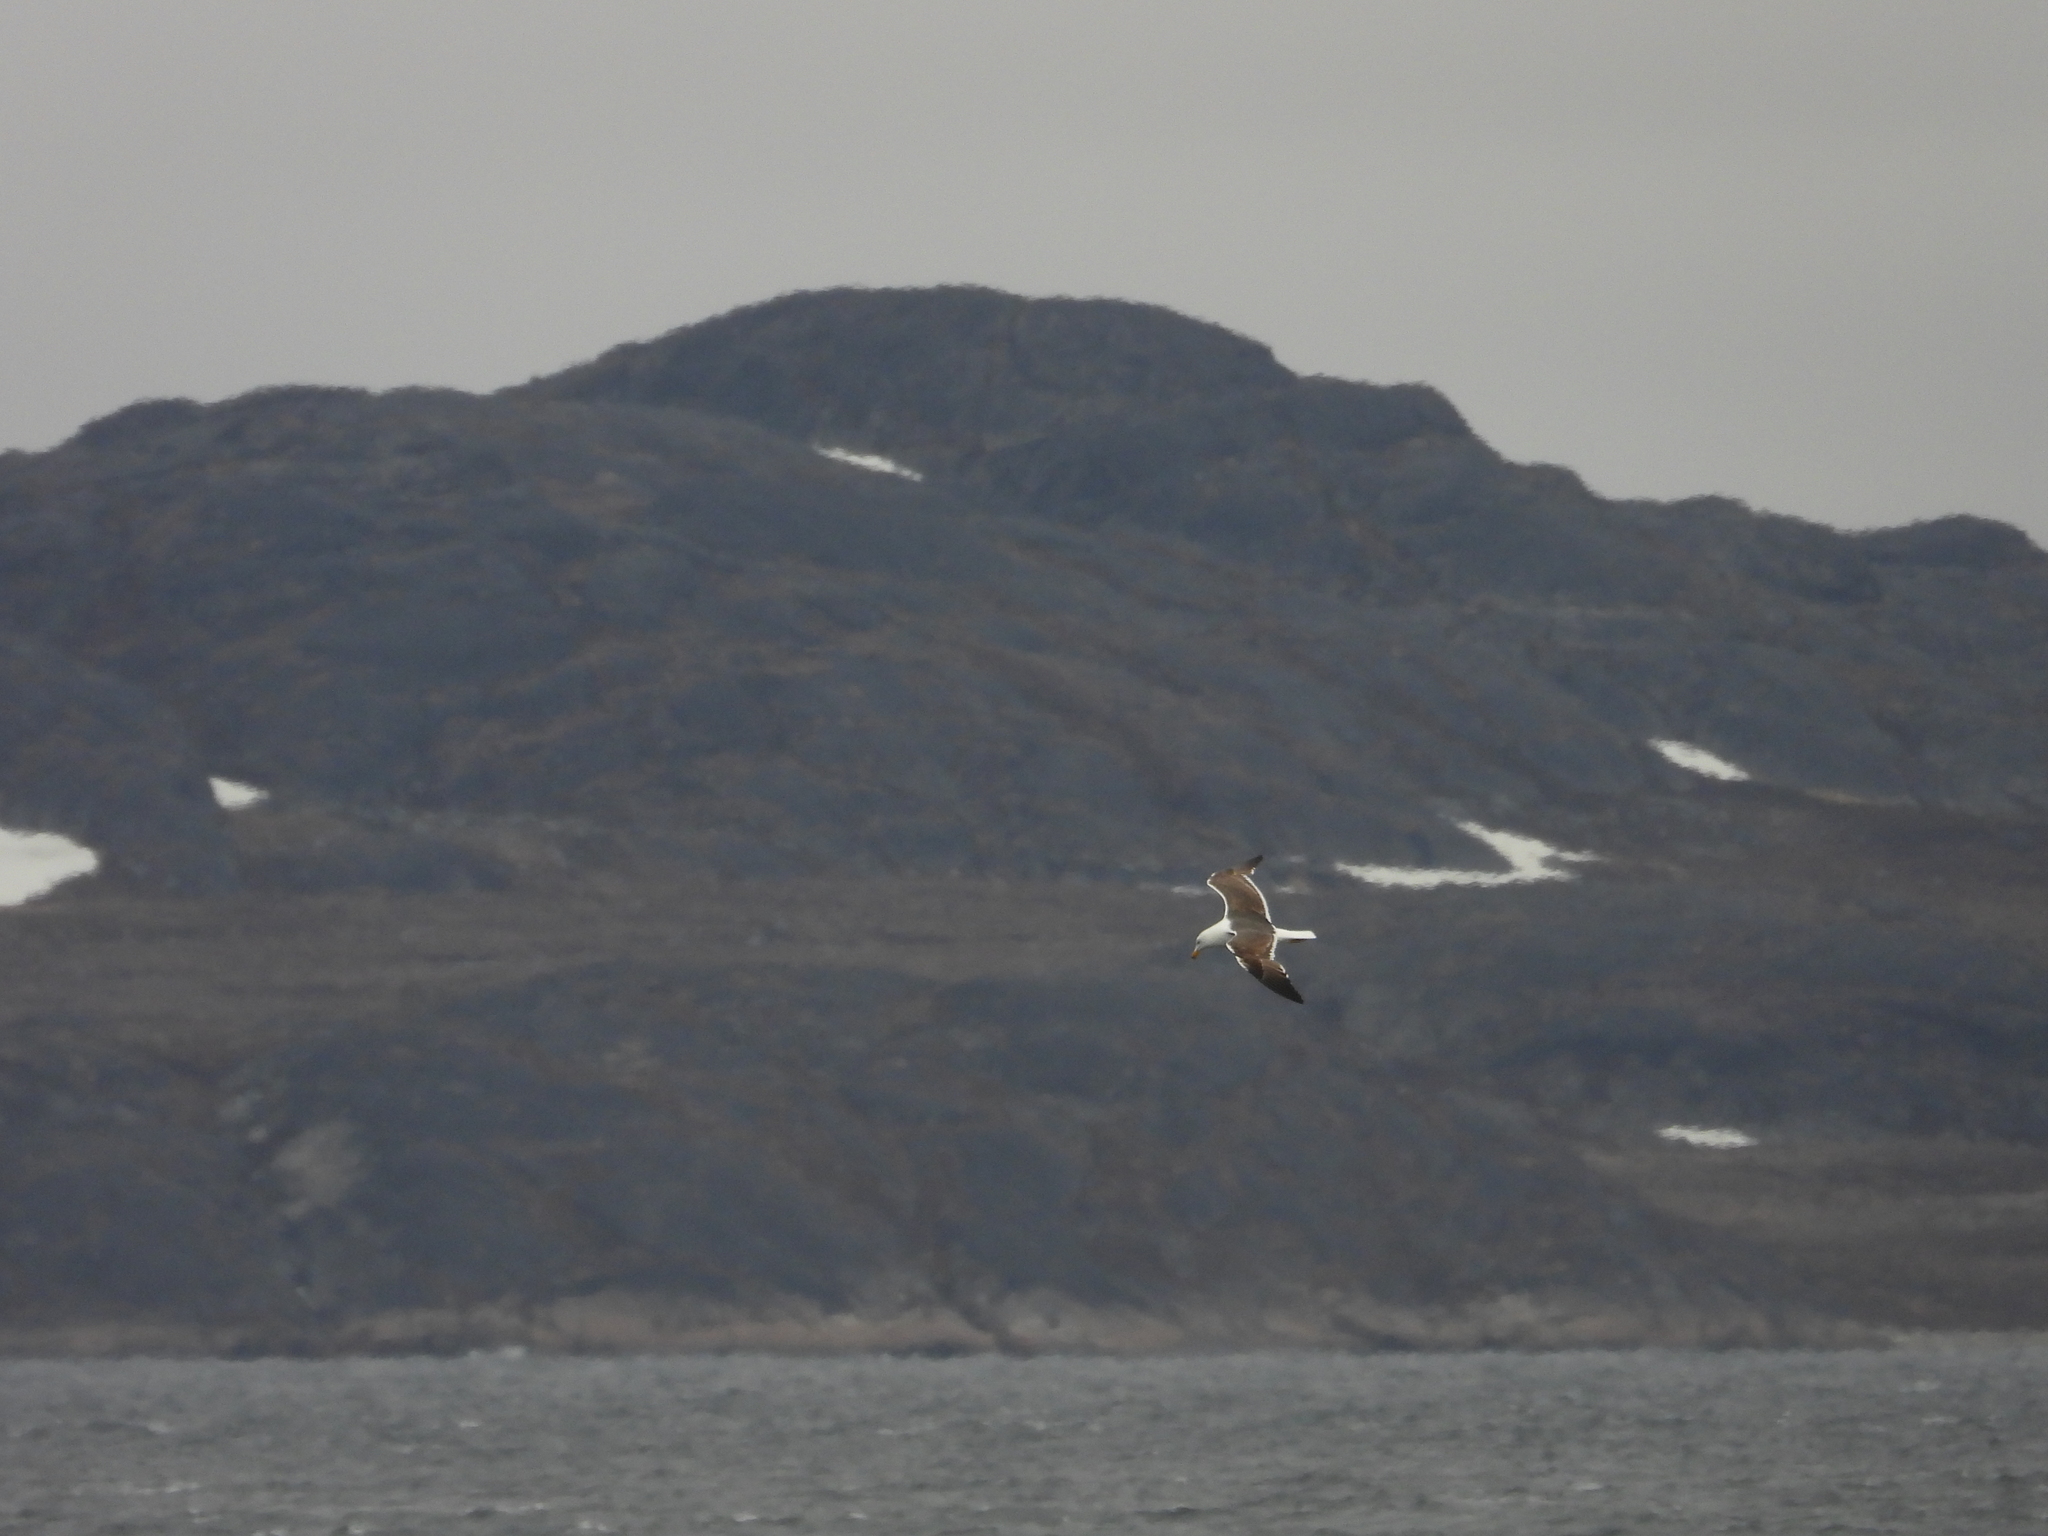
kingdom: Animalia
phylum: Chordata
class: Aves
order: Charadriiformes
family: Laridae
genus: Larus
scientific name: Larus marinus
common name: Great black-backed gull
